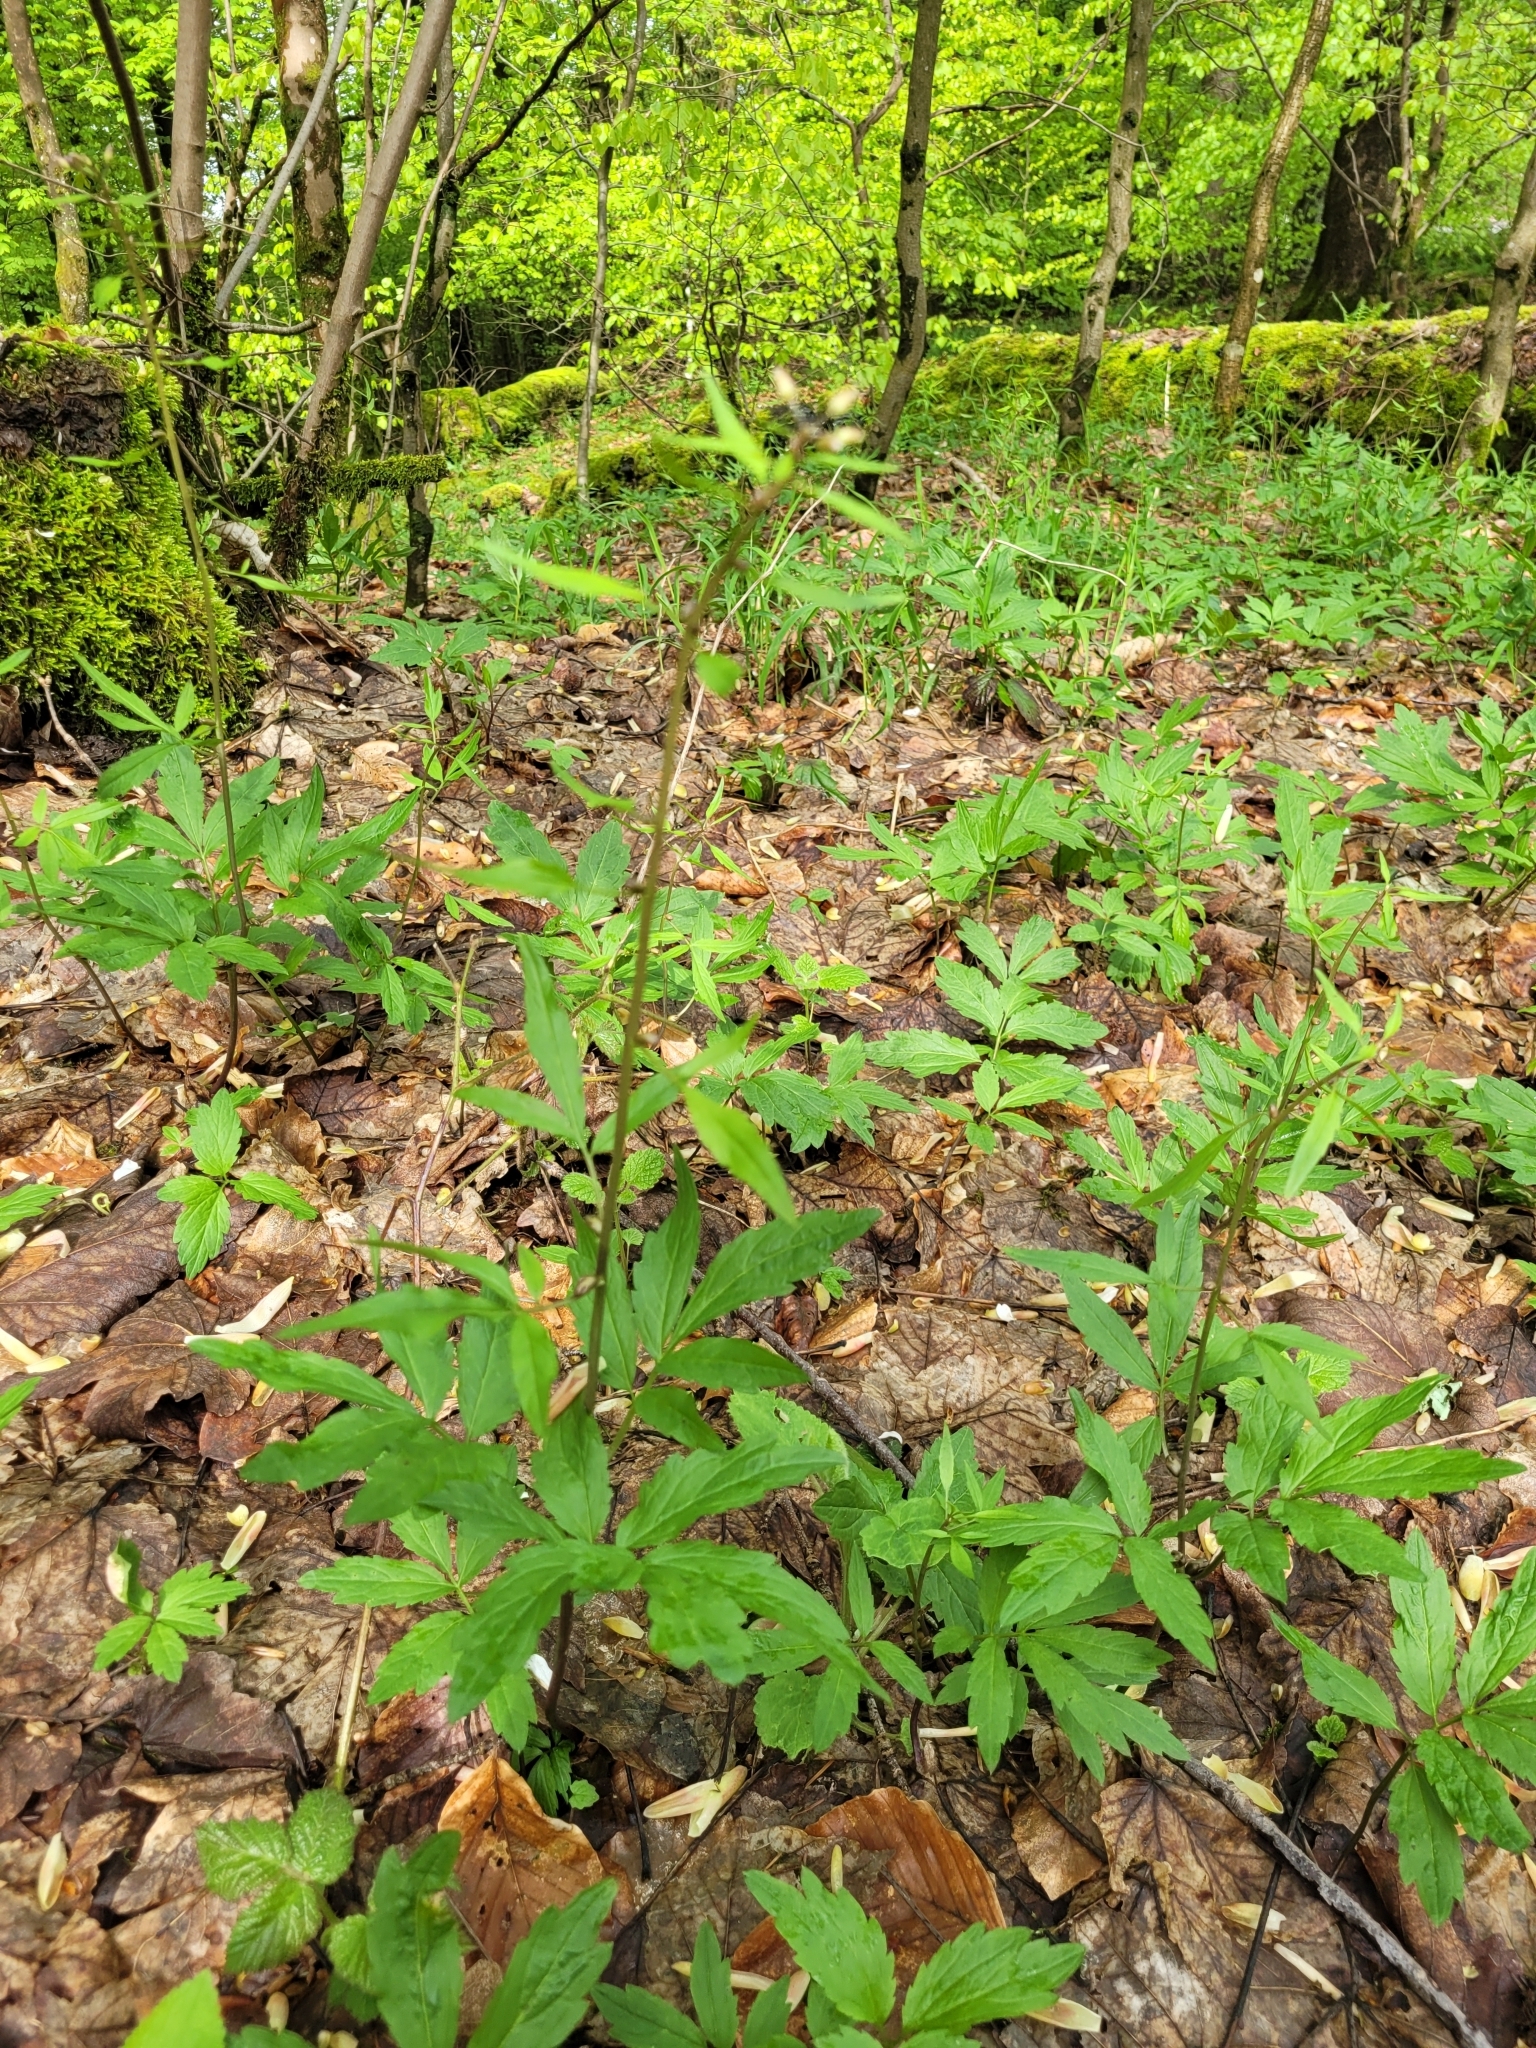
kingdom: Plantae
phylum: Tracheophyta
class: Magnoliopsida
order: Brassicales
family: Brassicaceae
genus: Cardamine
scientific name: Cardamine bulbifera
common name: Coralroot bittercress
